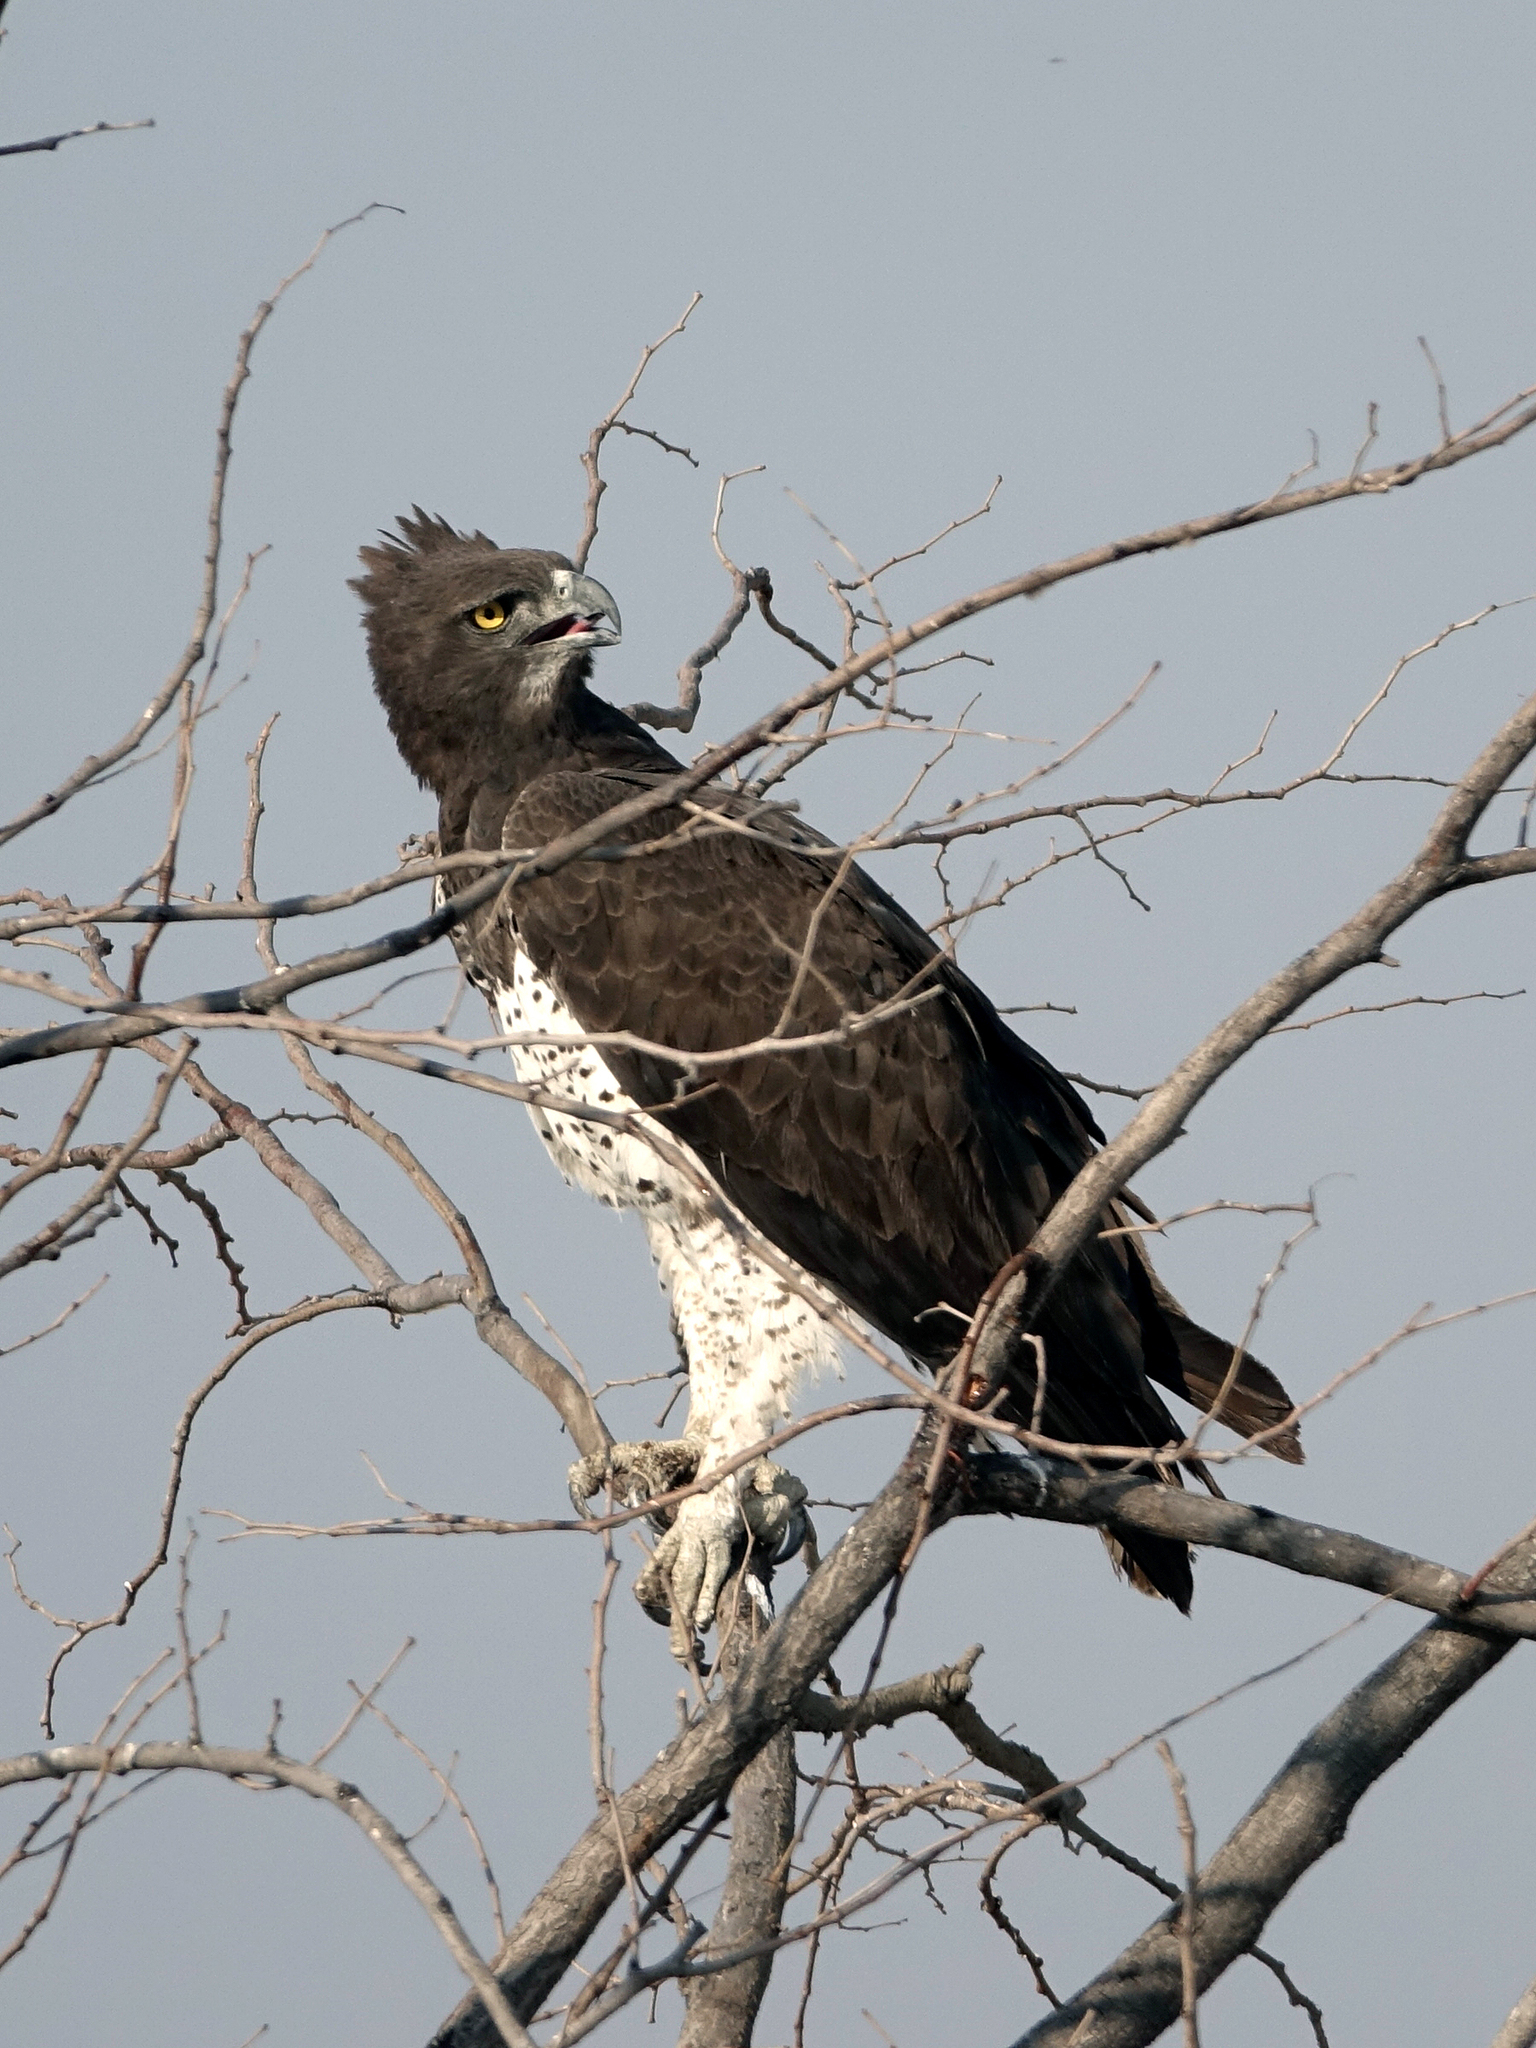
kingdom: Animalia
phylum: Chordata
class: Aves
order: Accipitriformes
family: Accipitridae
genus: Polemaetus
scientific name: Polemaetus bellicosus
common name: Martial eagle
